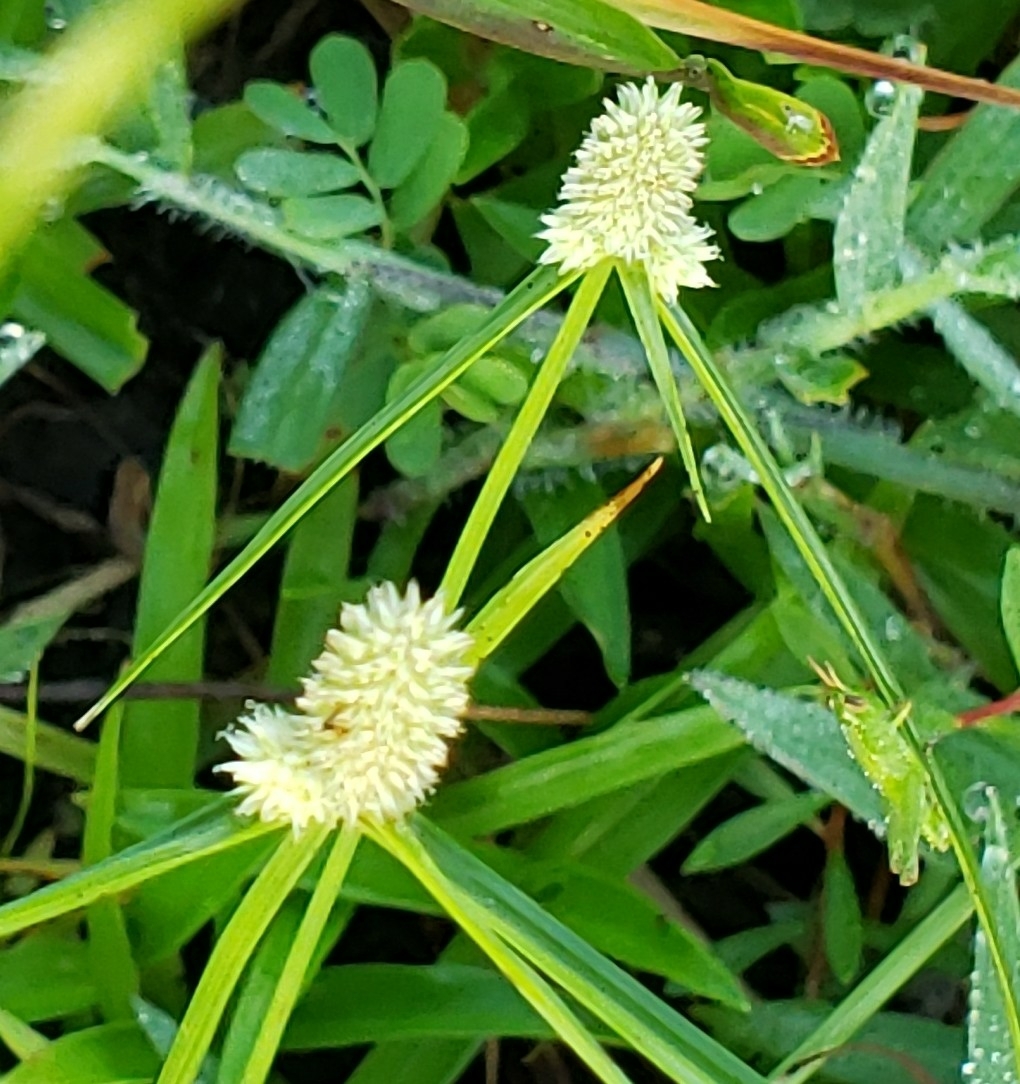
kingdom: Plantae
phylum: Tracheophyta
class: Liliopsida
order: Poales
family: Cyperaceae
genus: Cyperus
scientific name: Cyperus sesquiflorus
